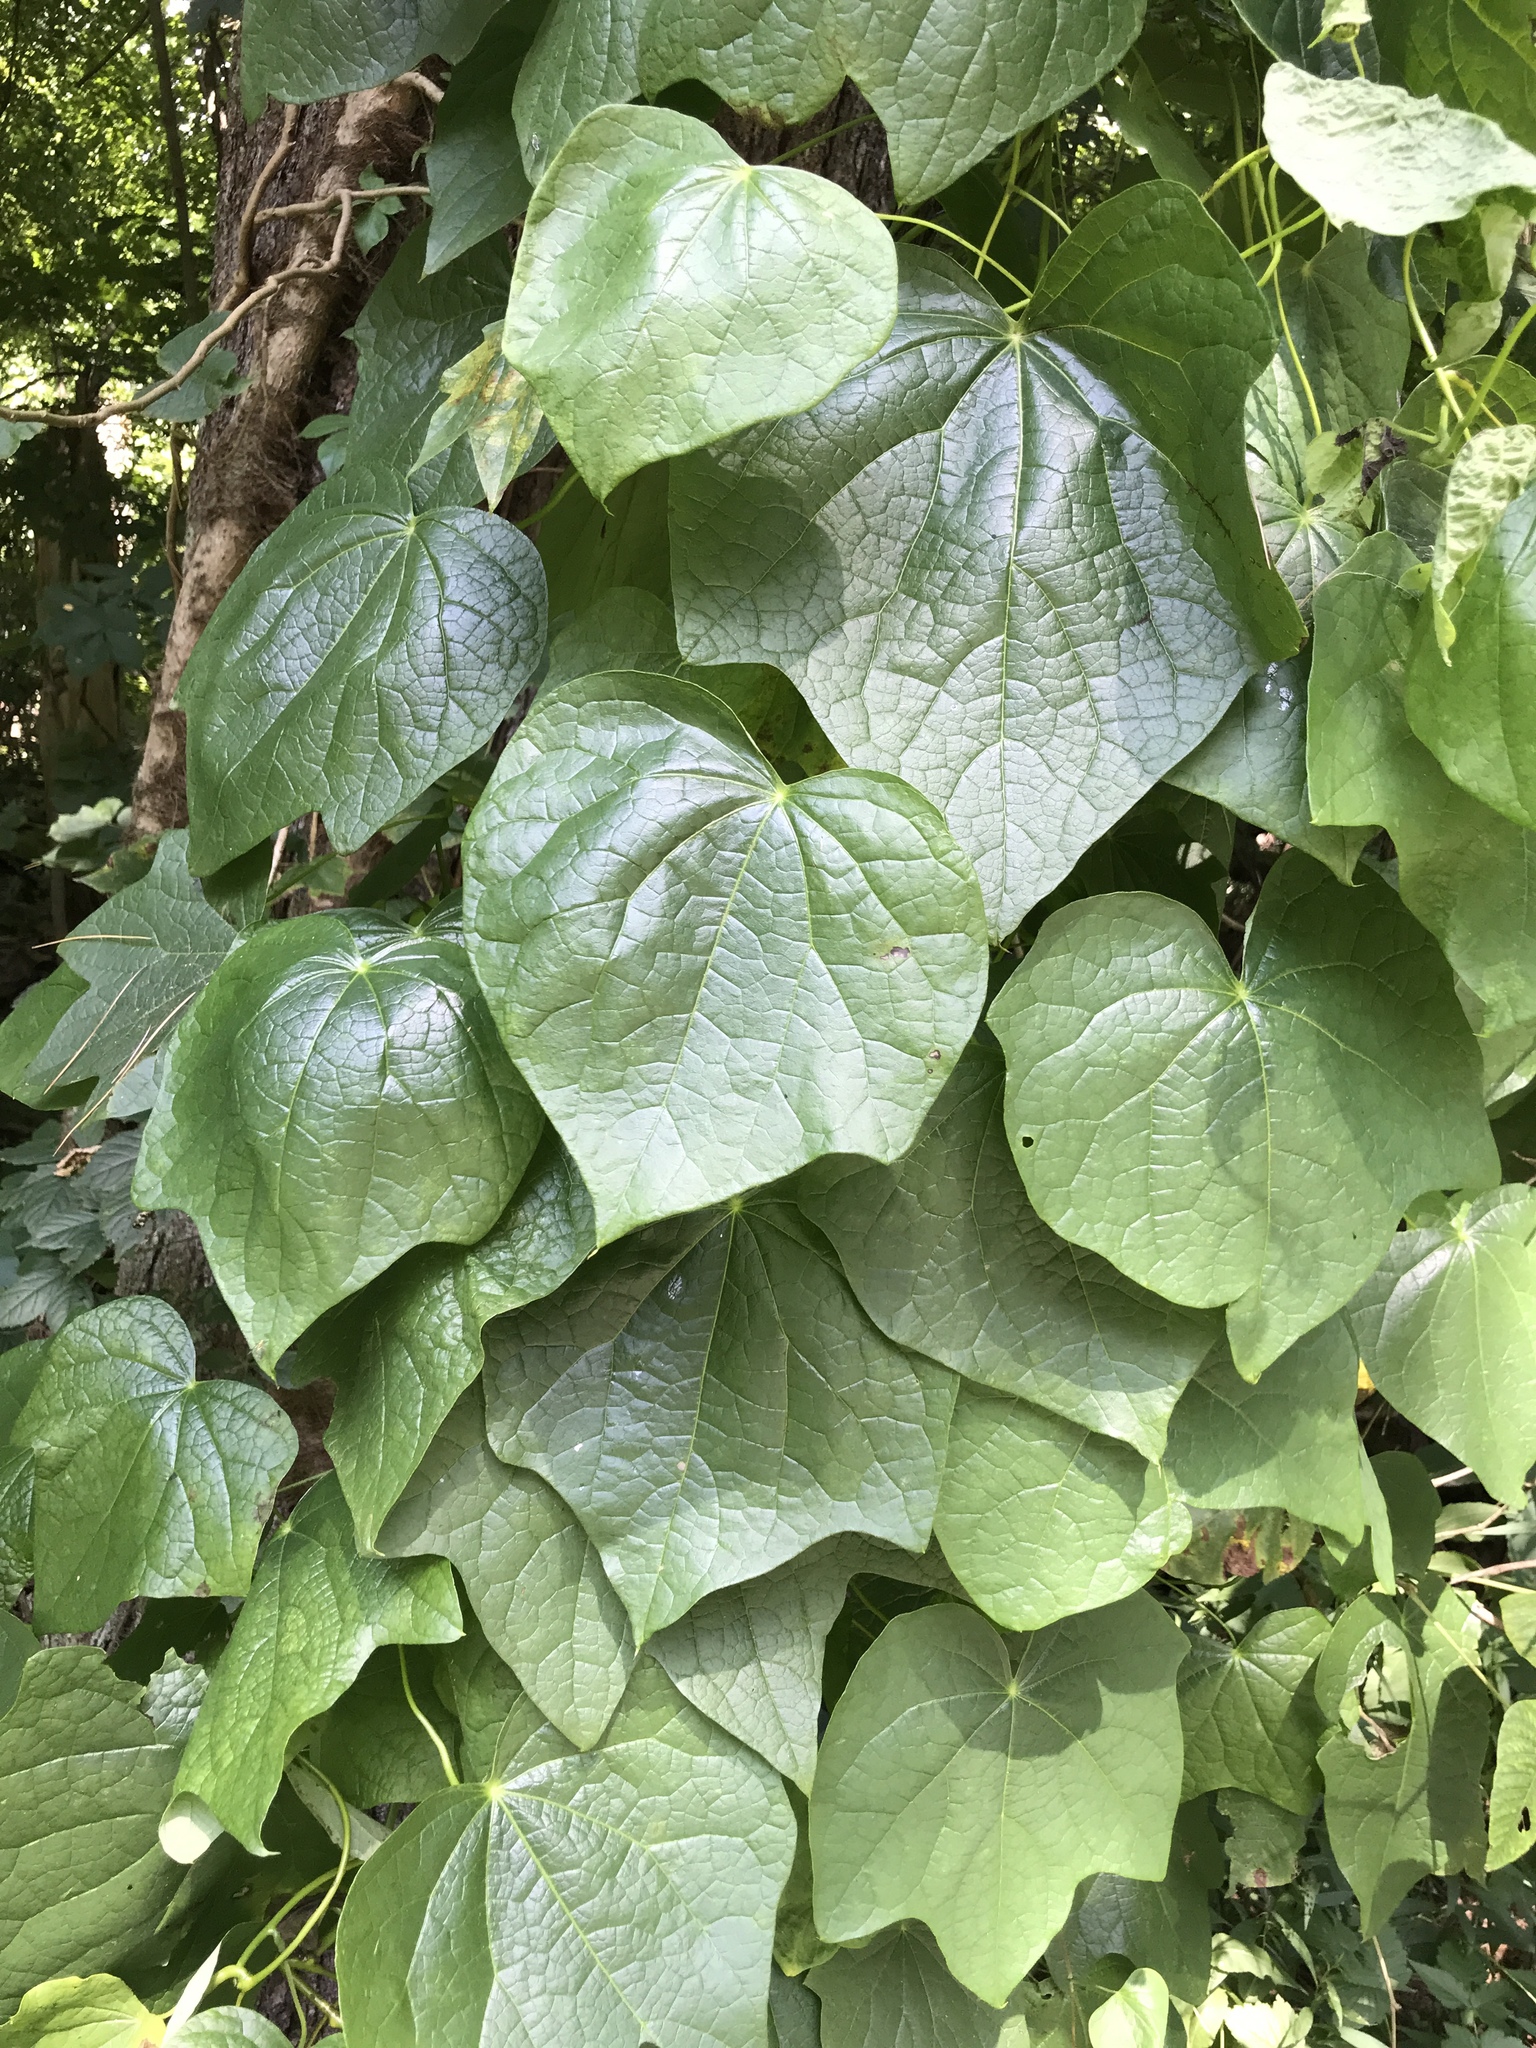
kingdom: Plantae
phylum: Tracheophyta
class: Magnoliopsida
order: Ranunculales
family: Menispermaceae
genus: Menispermum
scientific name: Menispermum canadense
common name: Moonseed
